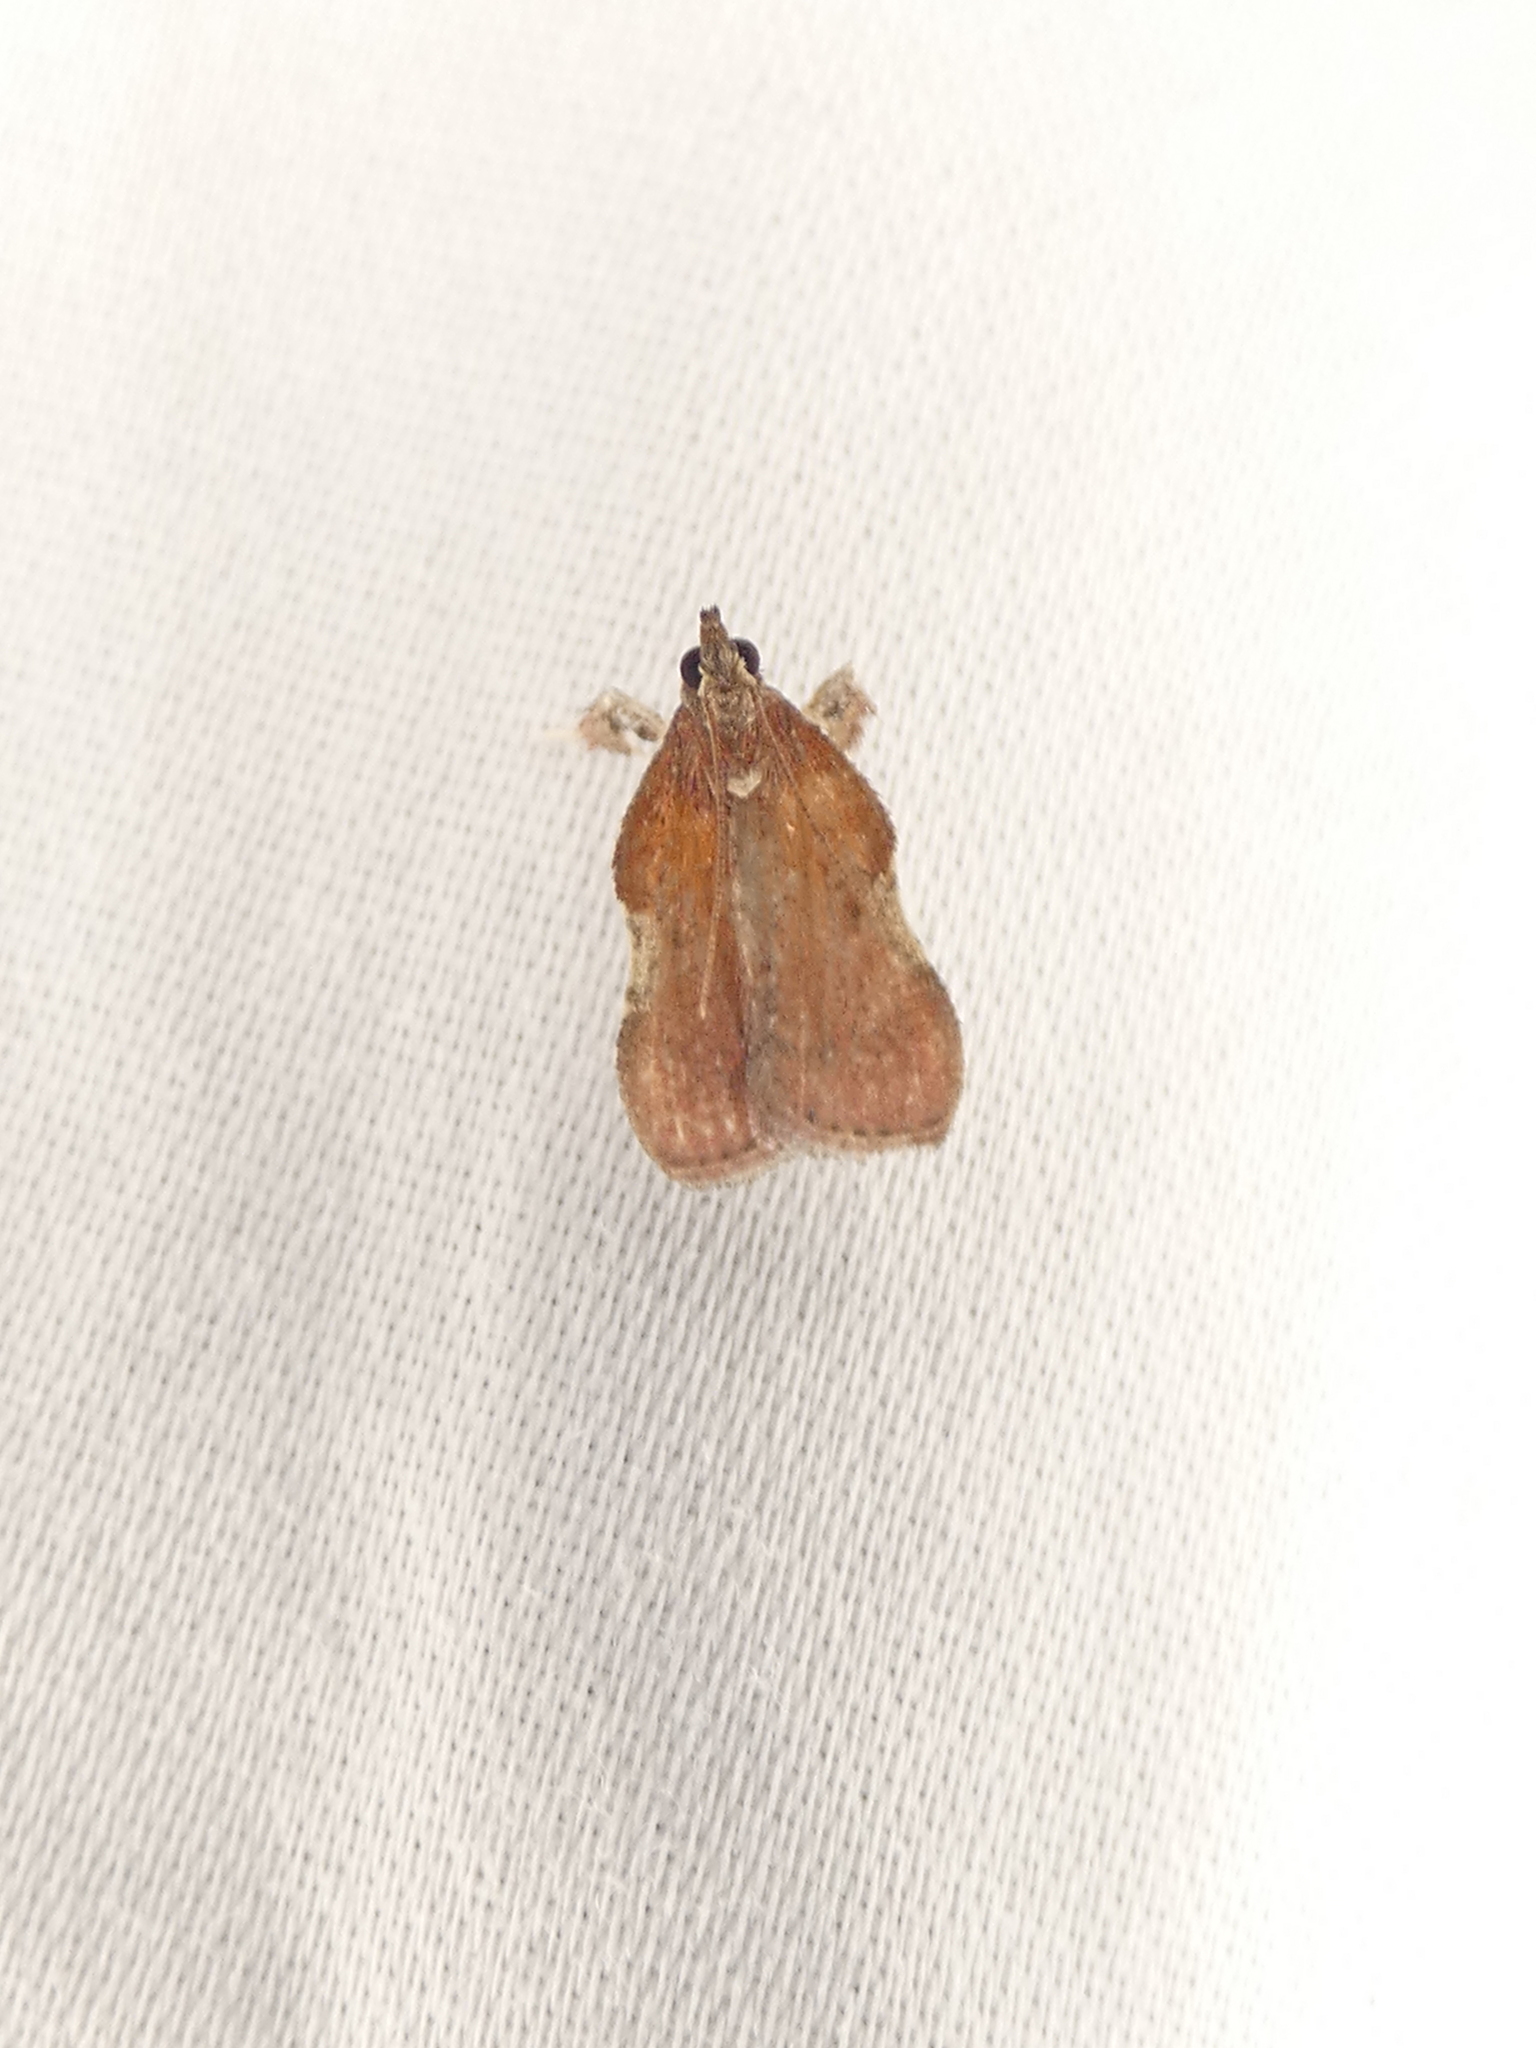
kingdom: Animalia
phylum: Arthropoda
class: Insecta
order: Lepidoptera
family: Pyralidae
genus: Galasa
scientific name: Galasa nigrinodis
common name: Boxwood leaftier moth
